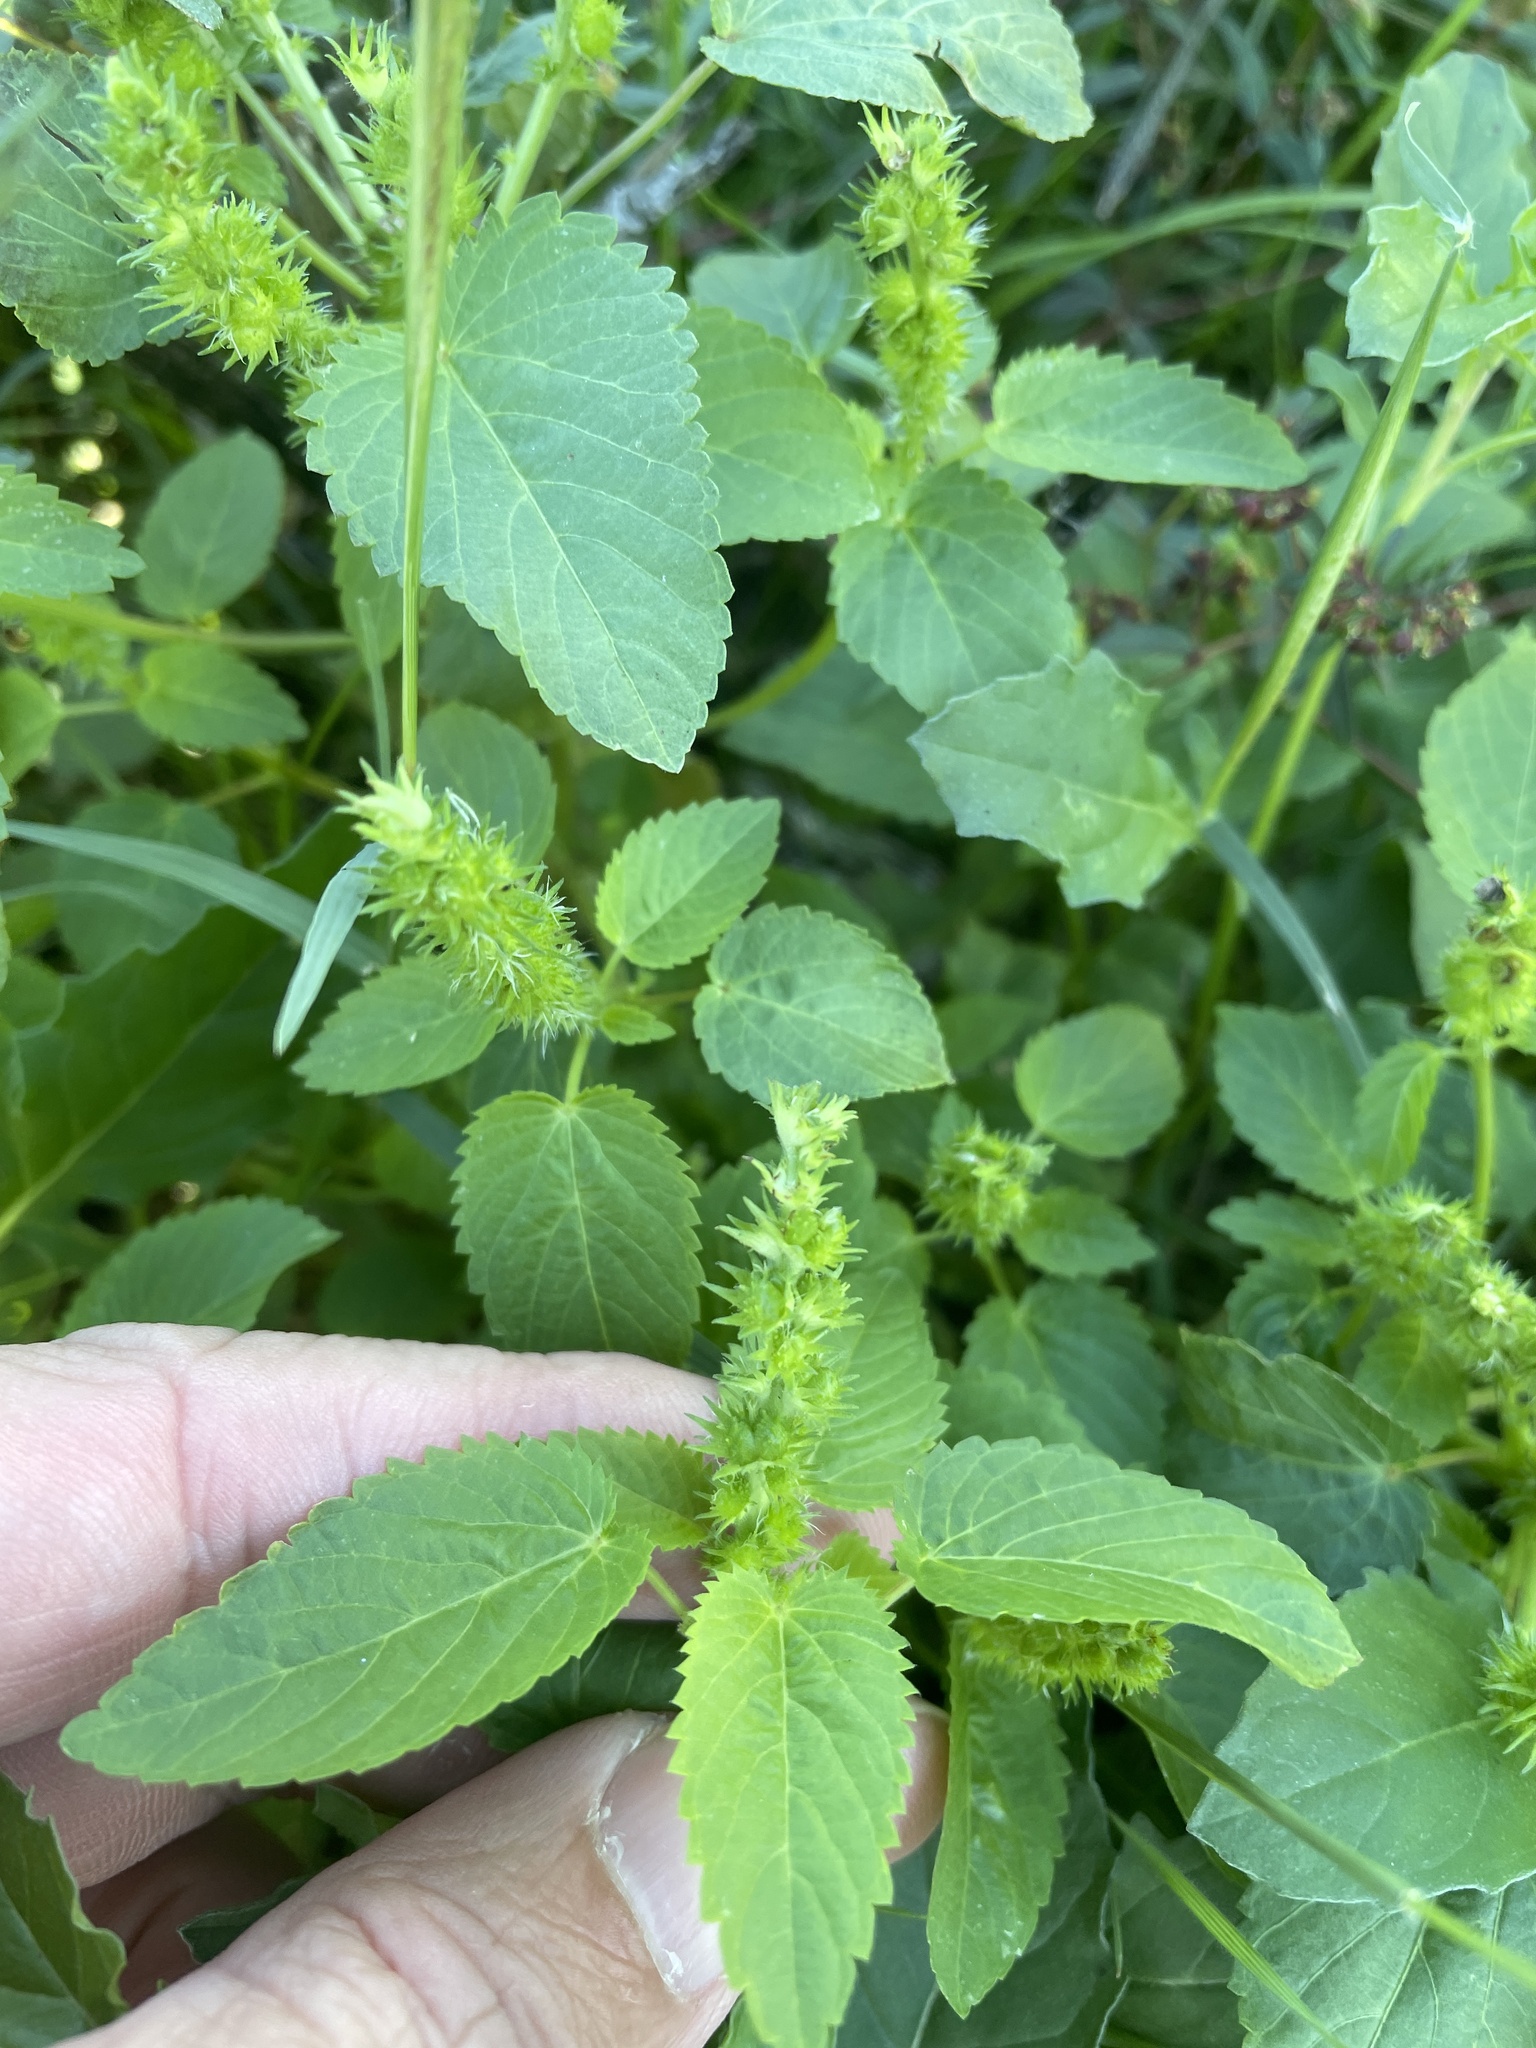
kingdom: Plantae
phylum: Tracheophyta
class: Magnoliopsida
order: Malpighiales
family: Euphorbiaceae
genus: Acalypha
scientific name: Acalypha ostryifolia
